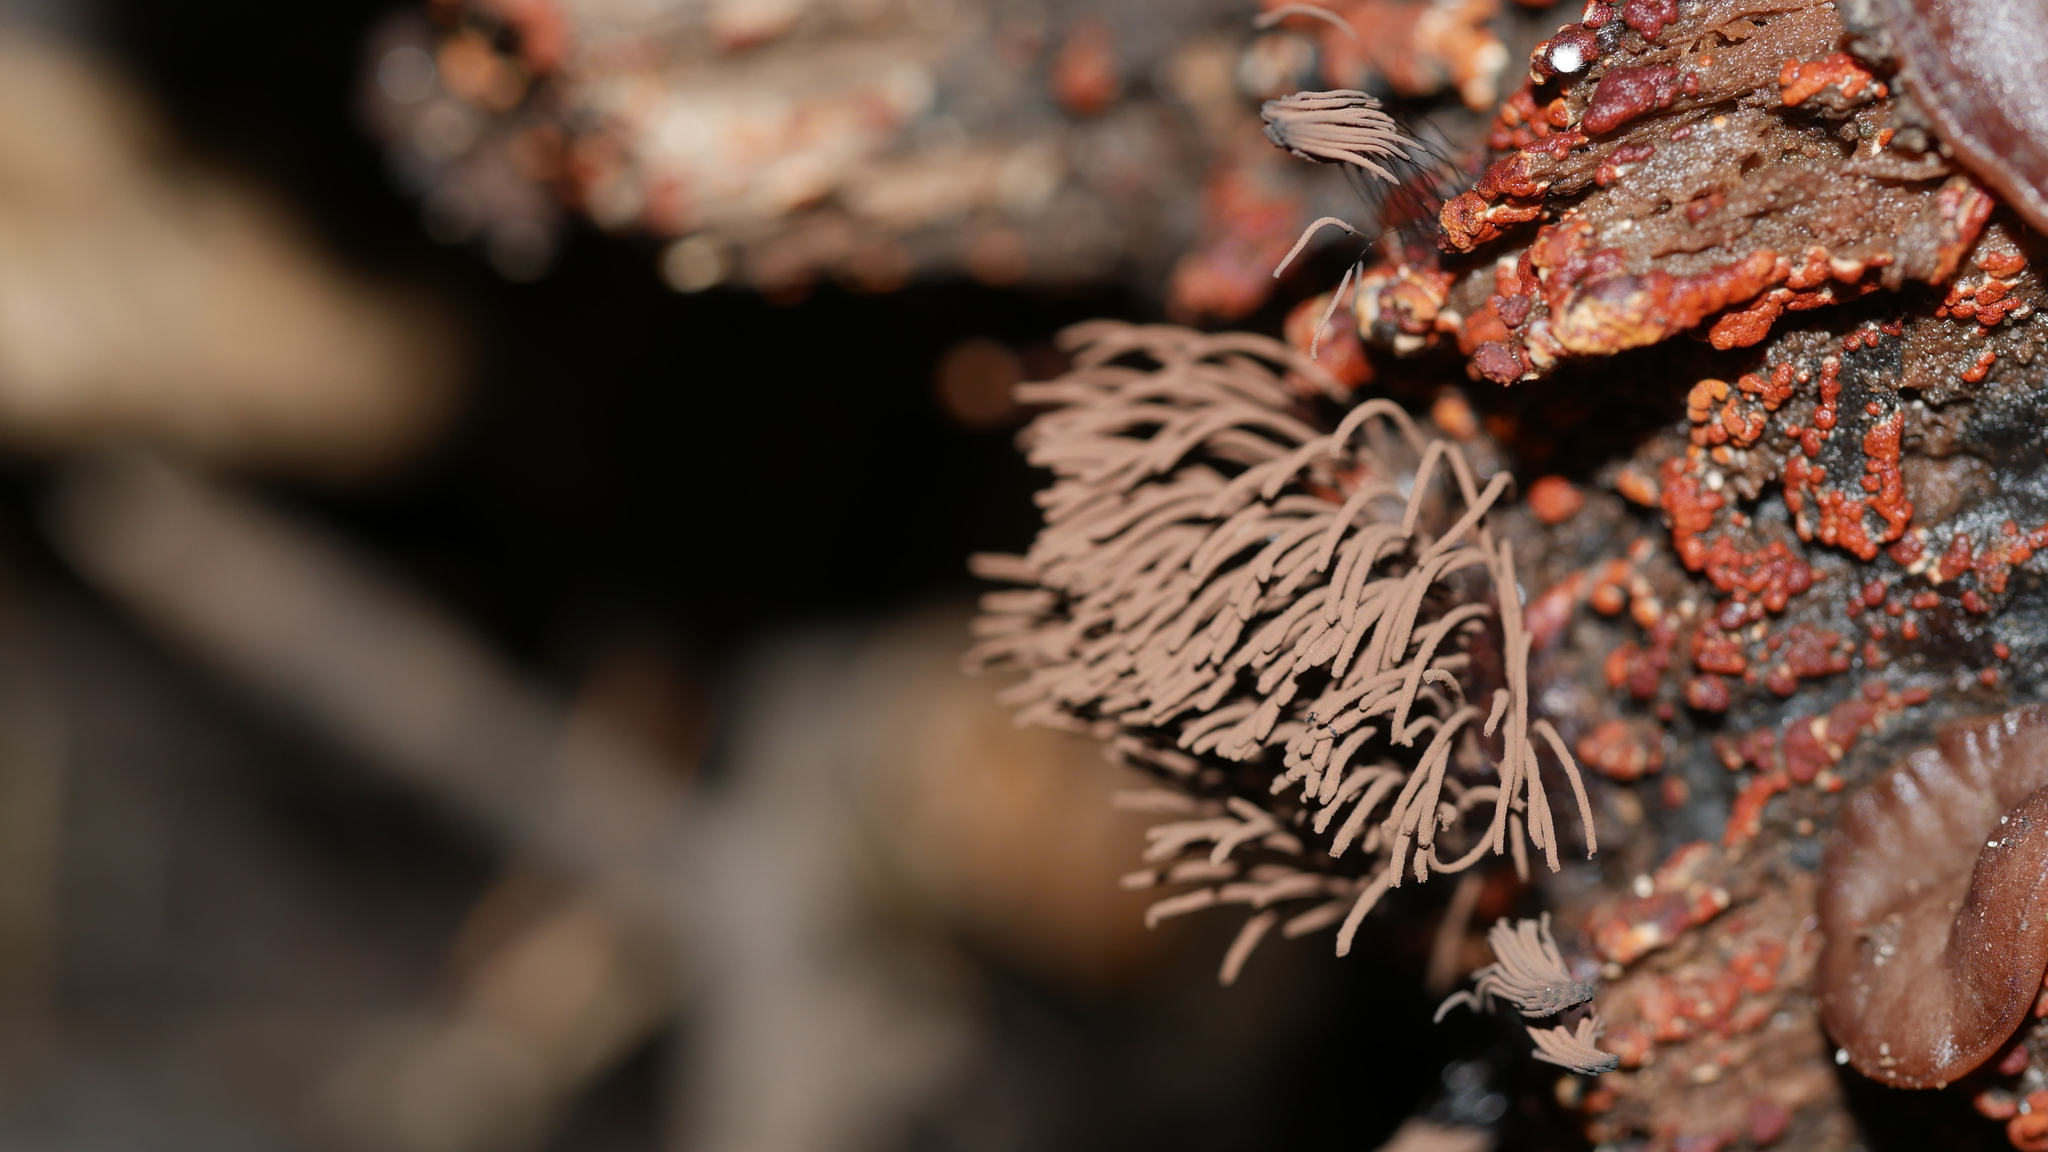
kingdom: Protozoa
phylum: Mycetozoa
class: Myxomycetes
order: Stemonitidales
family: Stemonitidaceae
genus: Stemonitis
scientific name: Stemonitis splendens
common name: Chocolate tube slime
